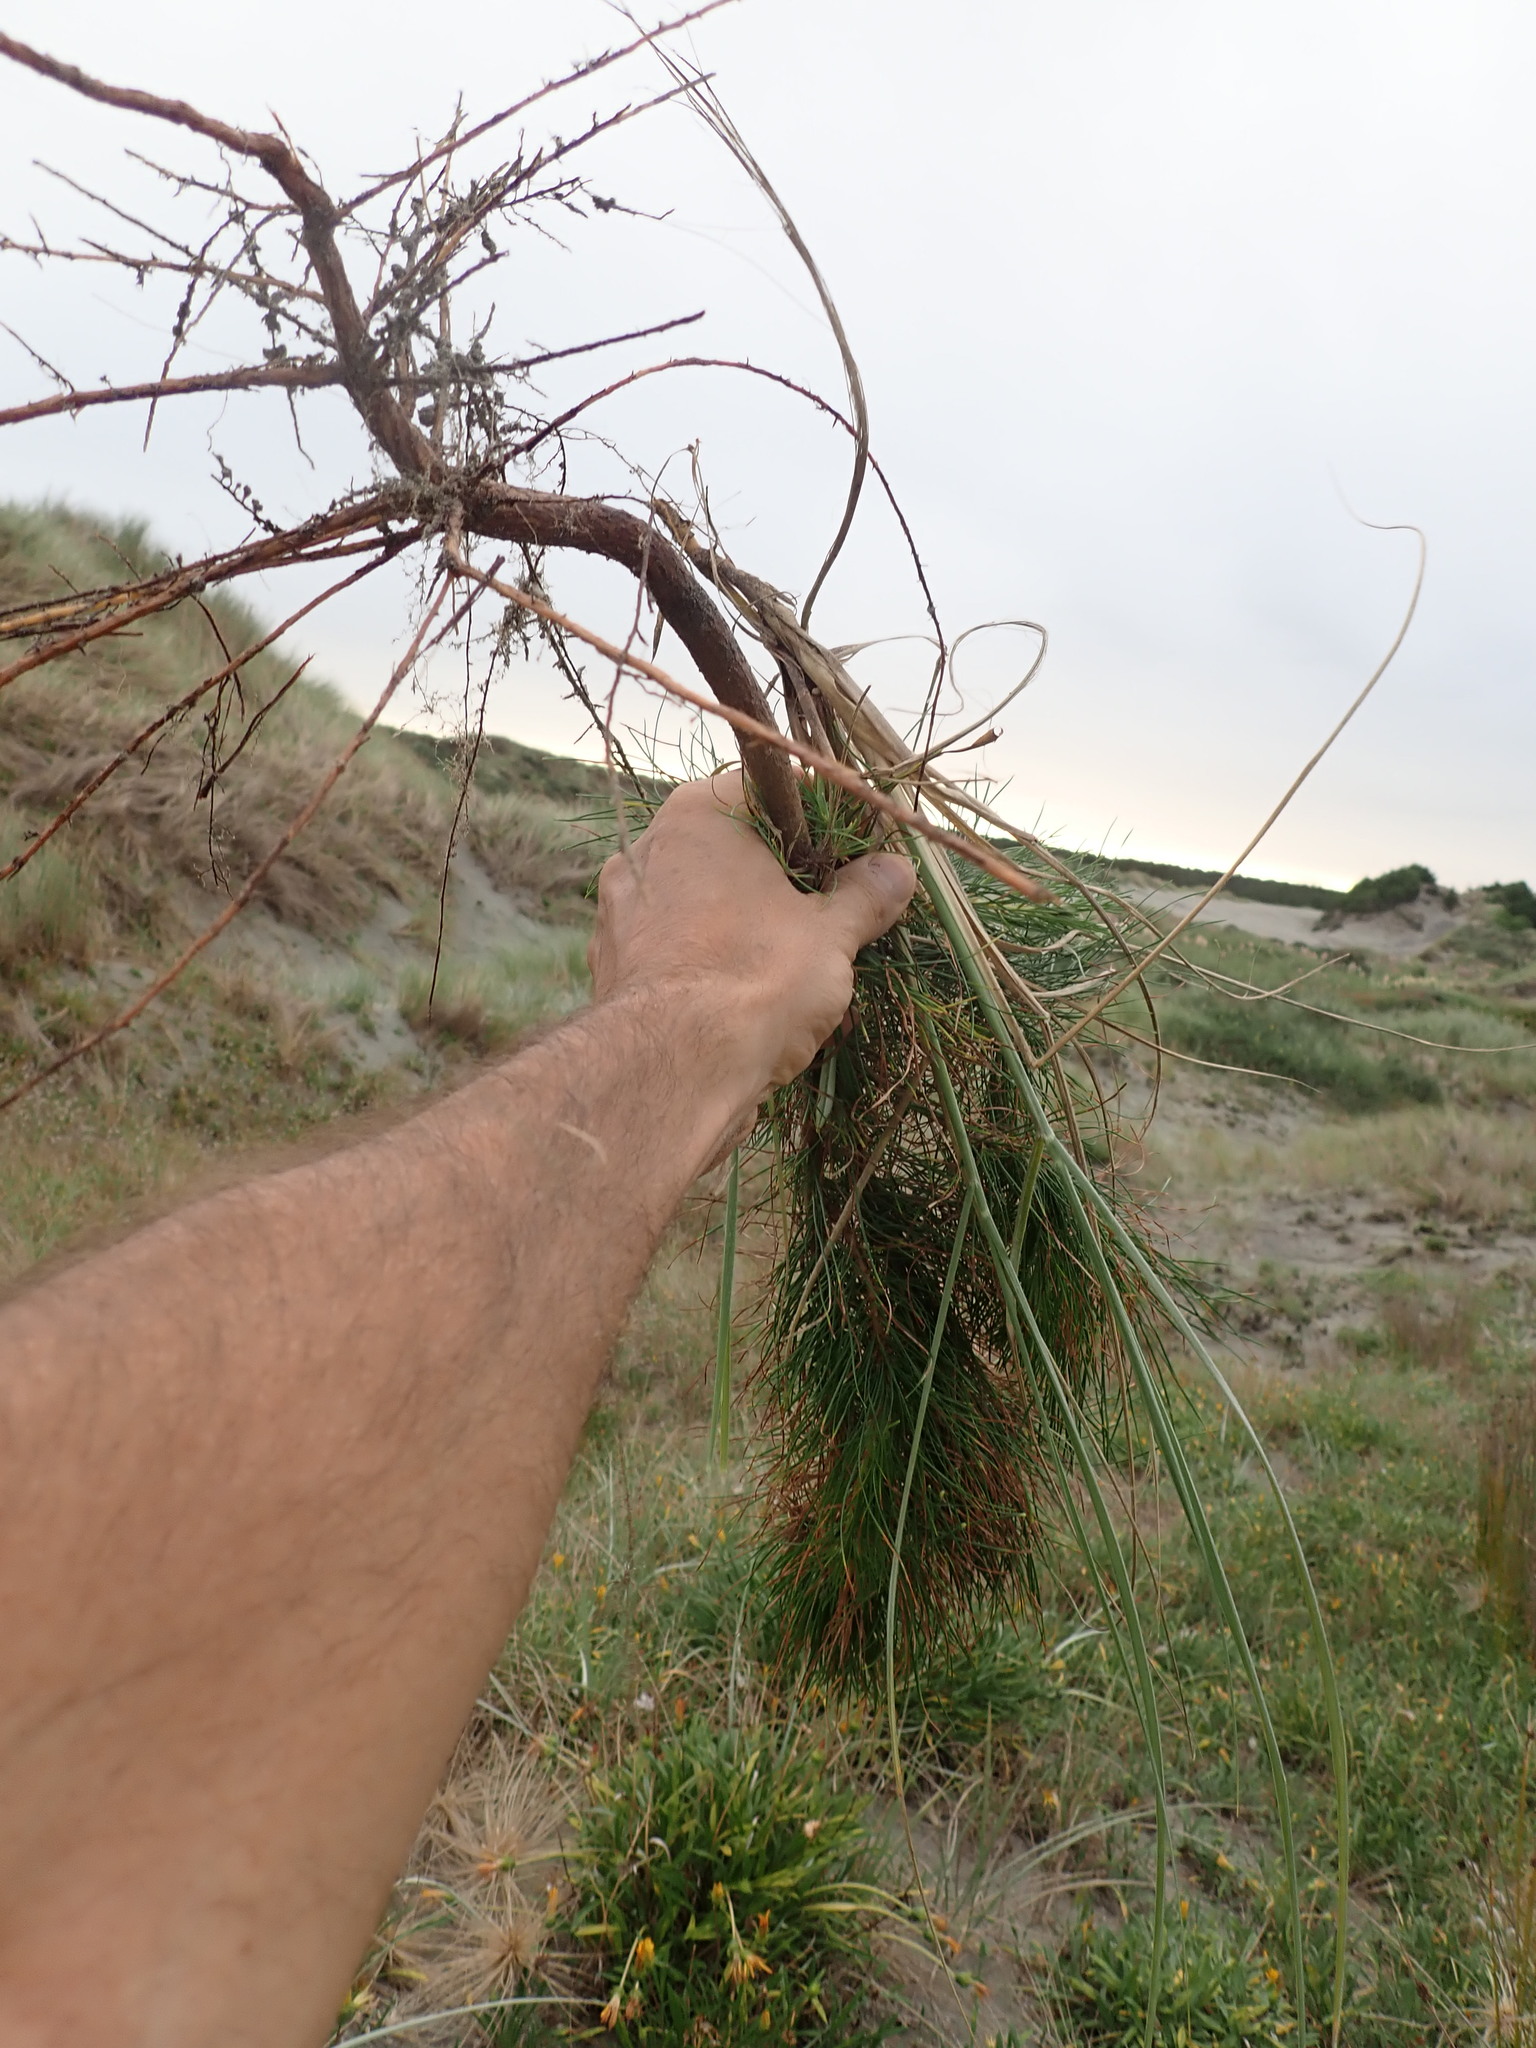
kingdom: Plantae
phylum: Tracheophyta
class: Pinopsida
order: Pinales
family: Pinaceae
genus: Pinus
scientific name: Pinus radiata
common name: Monterey pine
